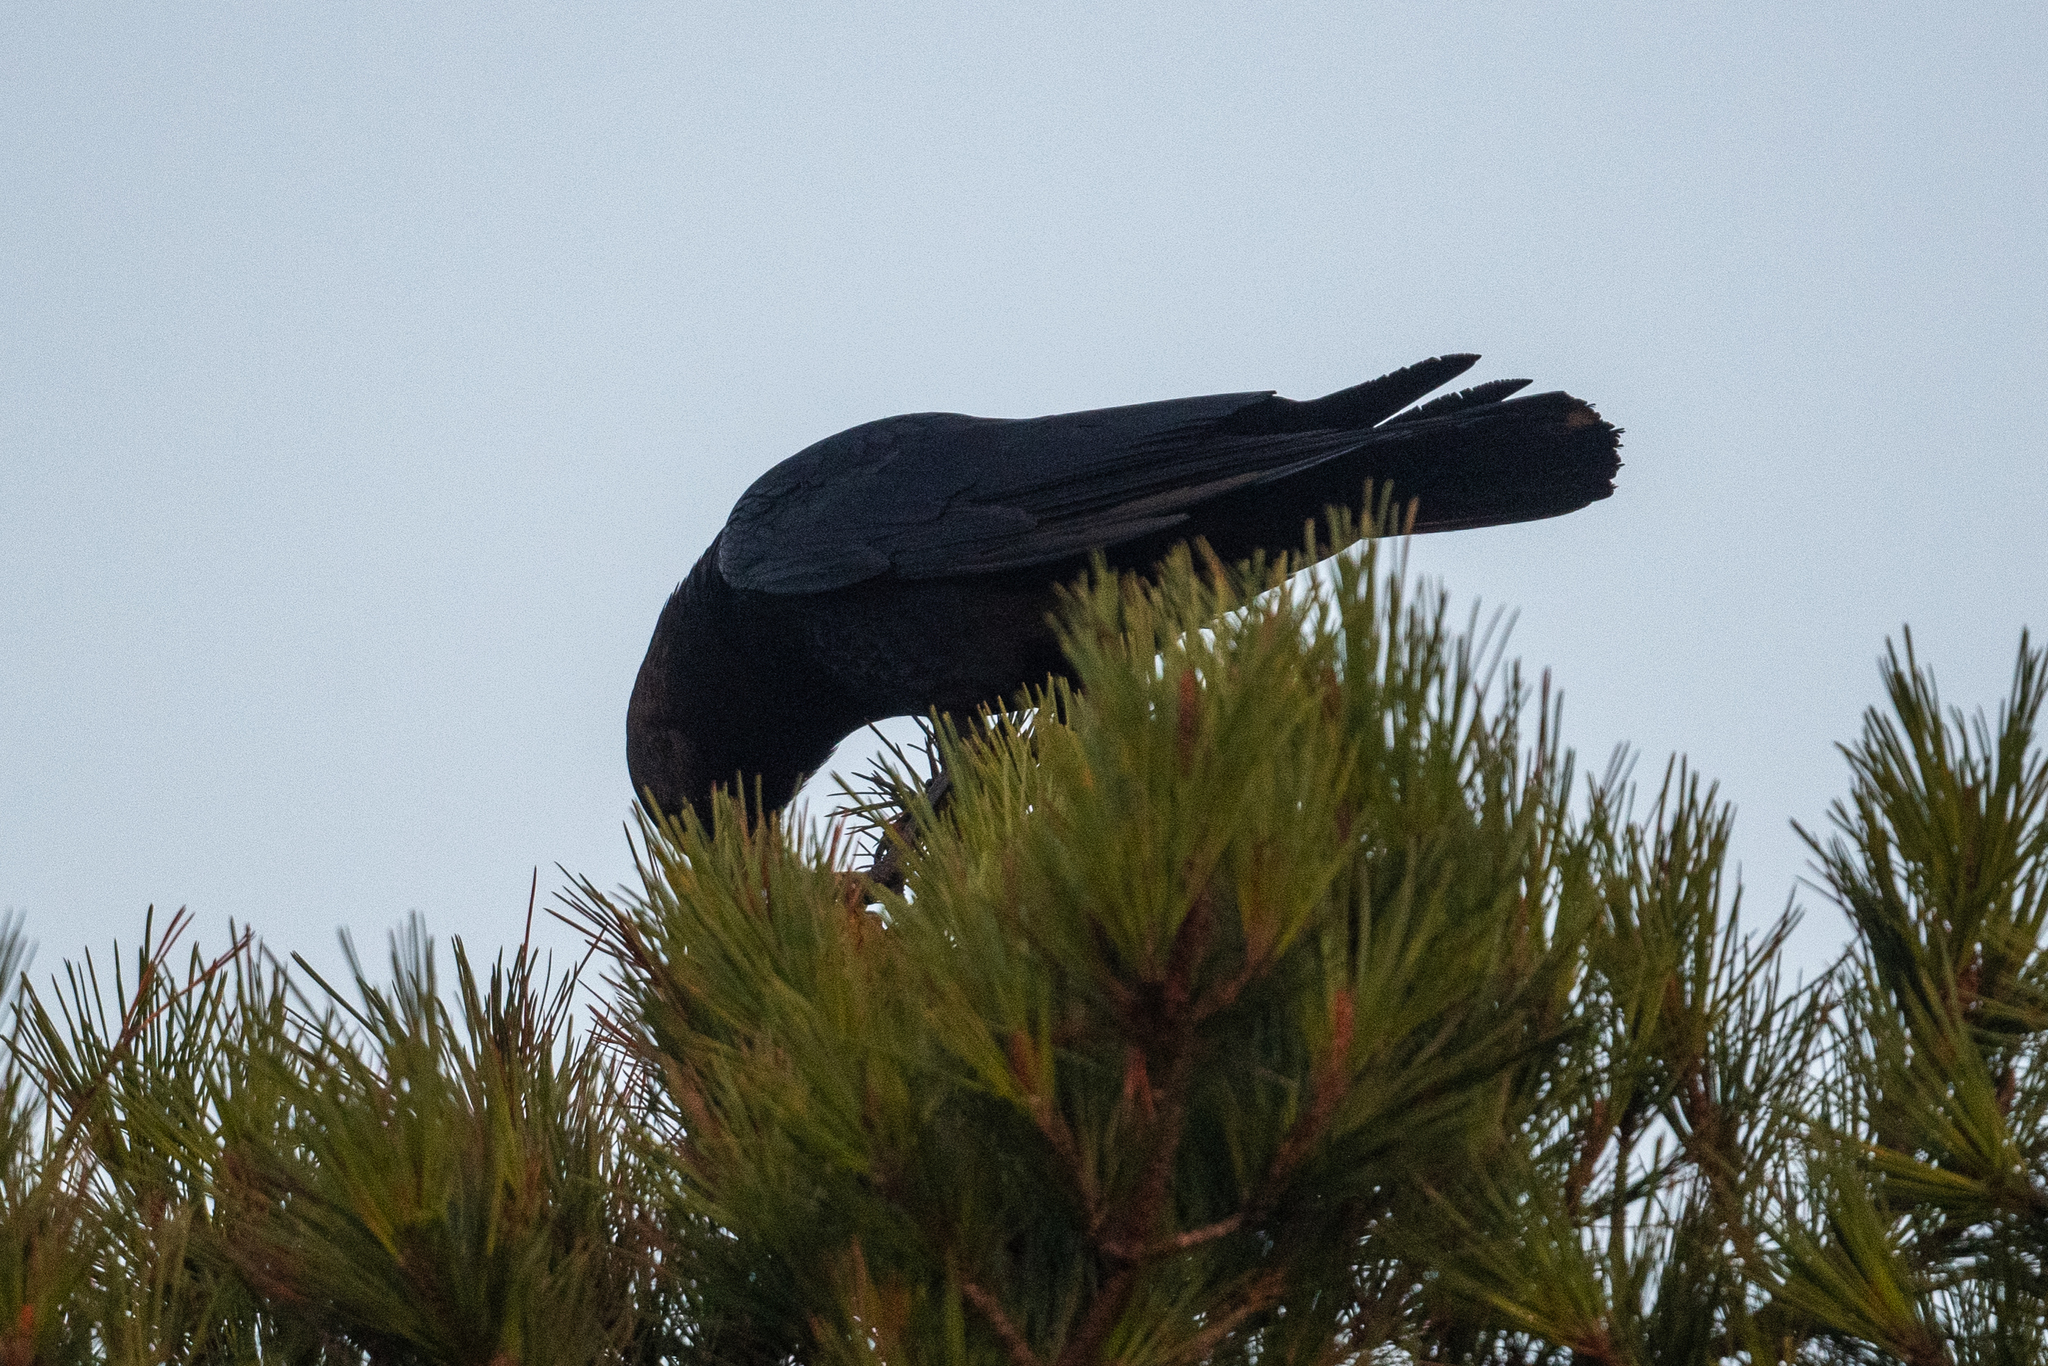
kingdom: Animalia
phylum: Chordata
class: Aves
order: Passeriformes
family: Corvidae
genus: Corvus
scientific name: Corvus brachyrhynchos
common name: American crow
